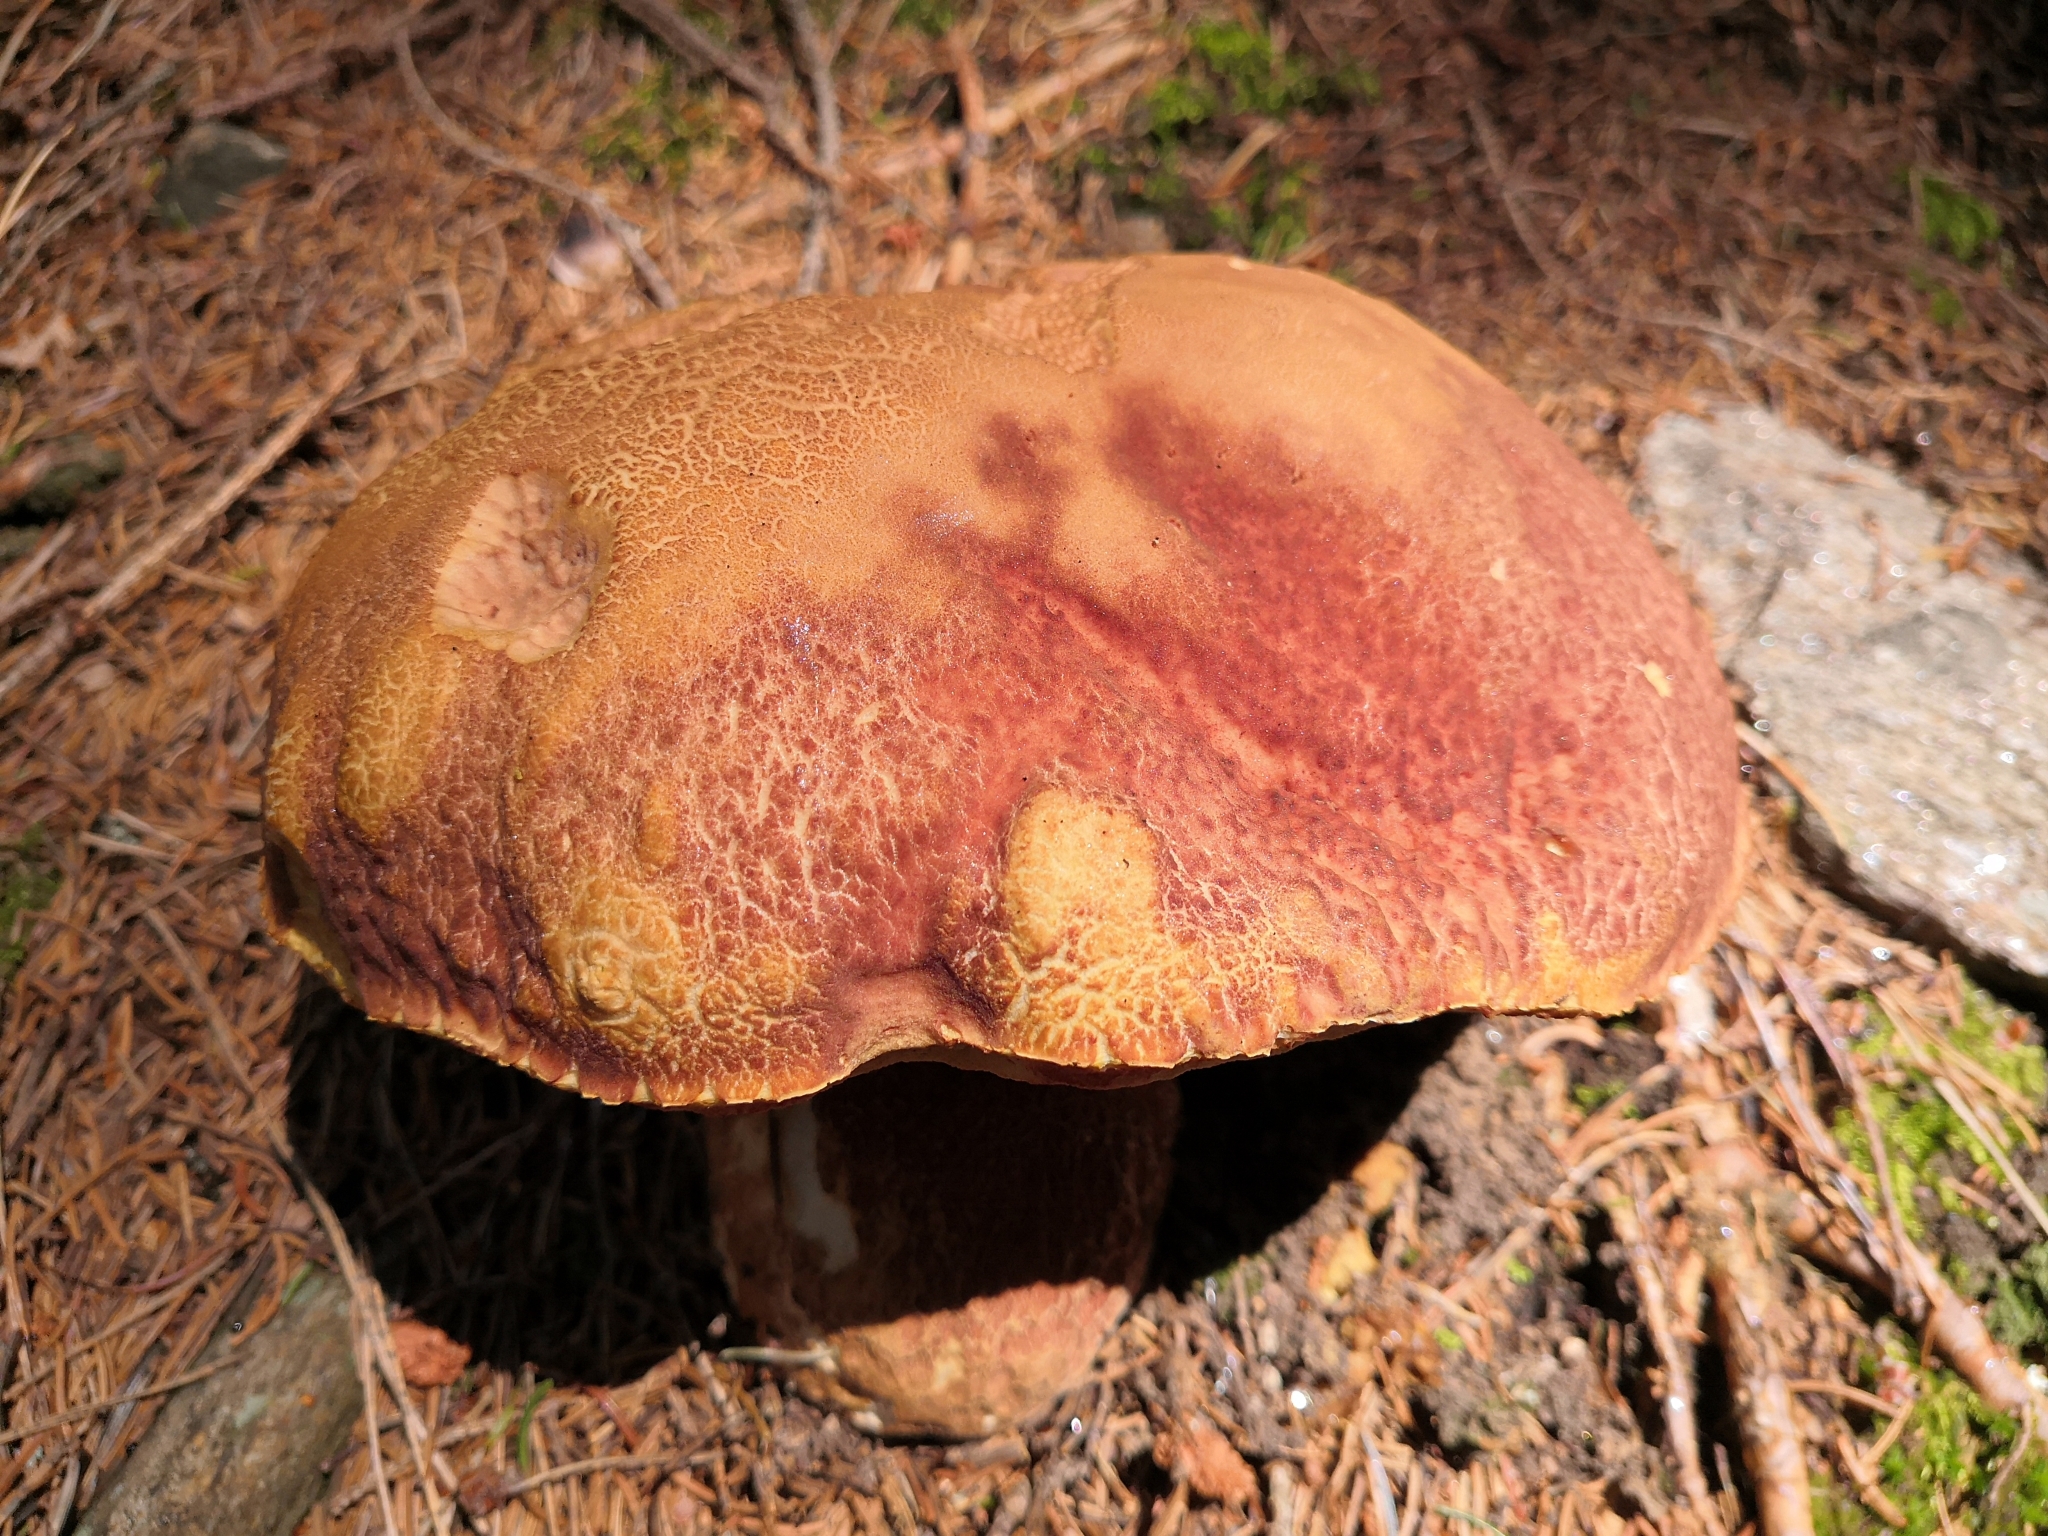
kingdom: Fungi
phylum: Basidiomycota
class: Agaricomycetes
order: Boletales
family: Boletaceae
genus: Boletus
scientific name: Boletus pinophilus
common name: Pine bolete
